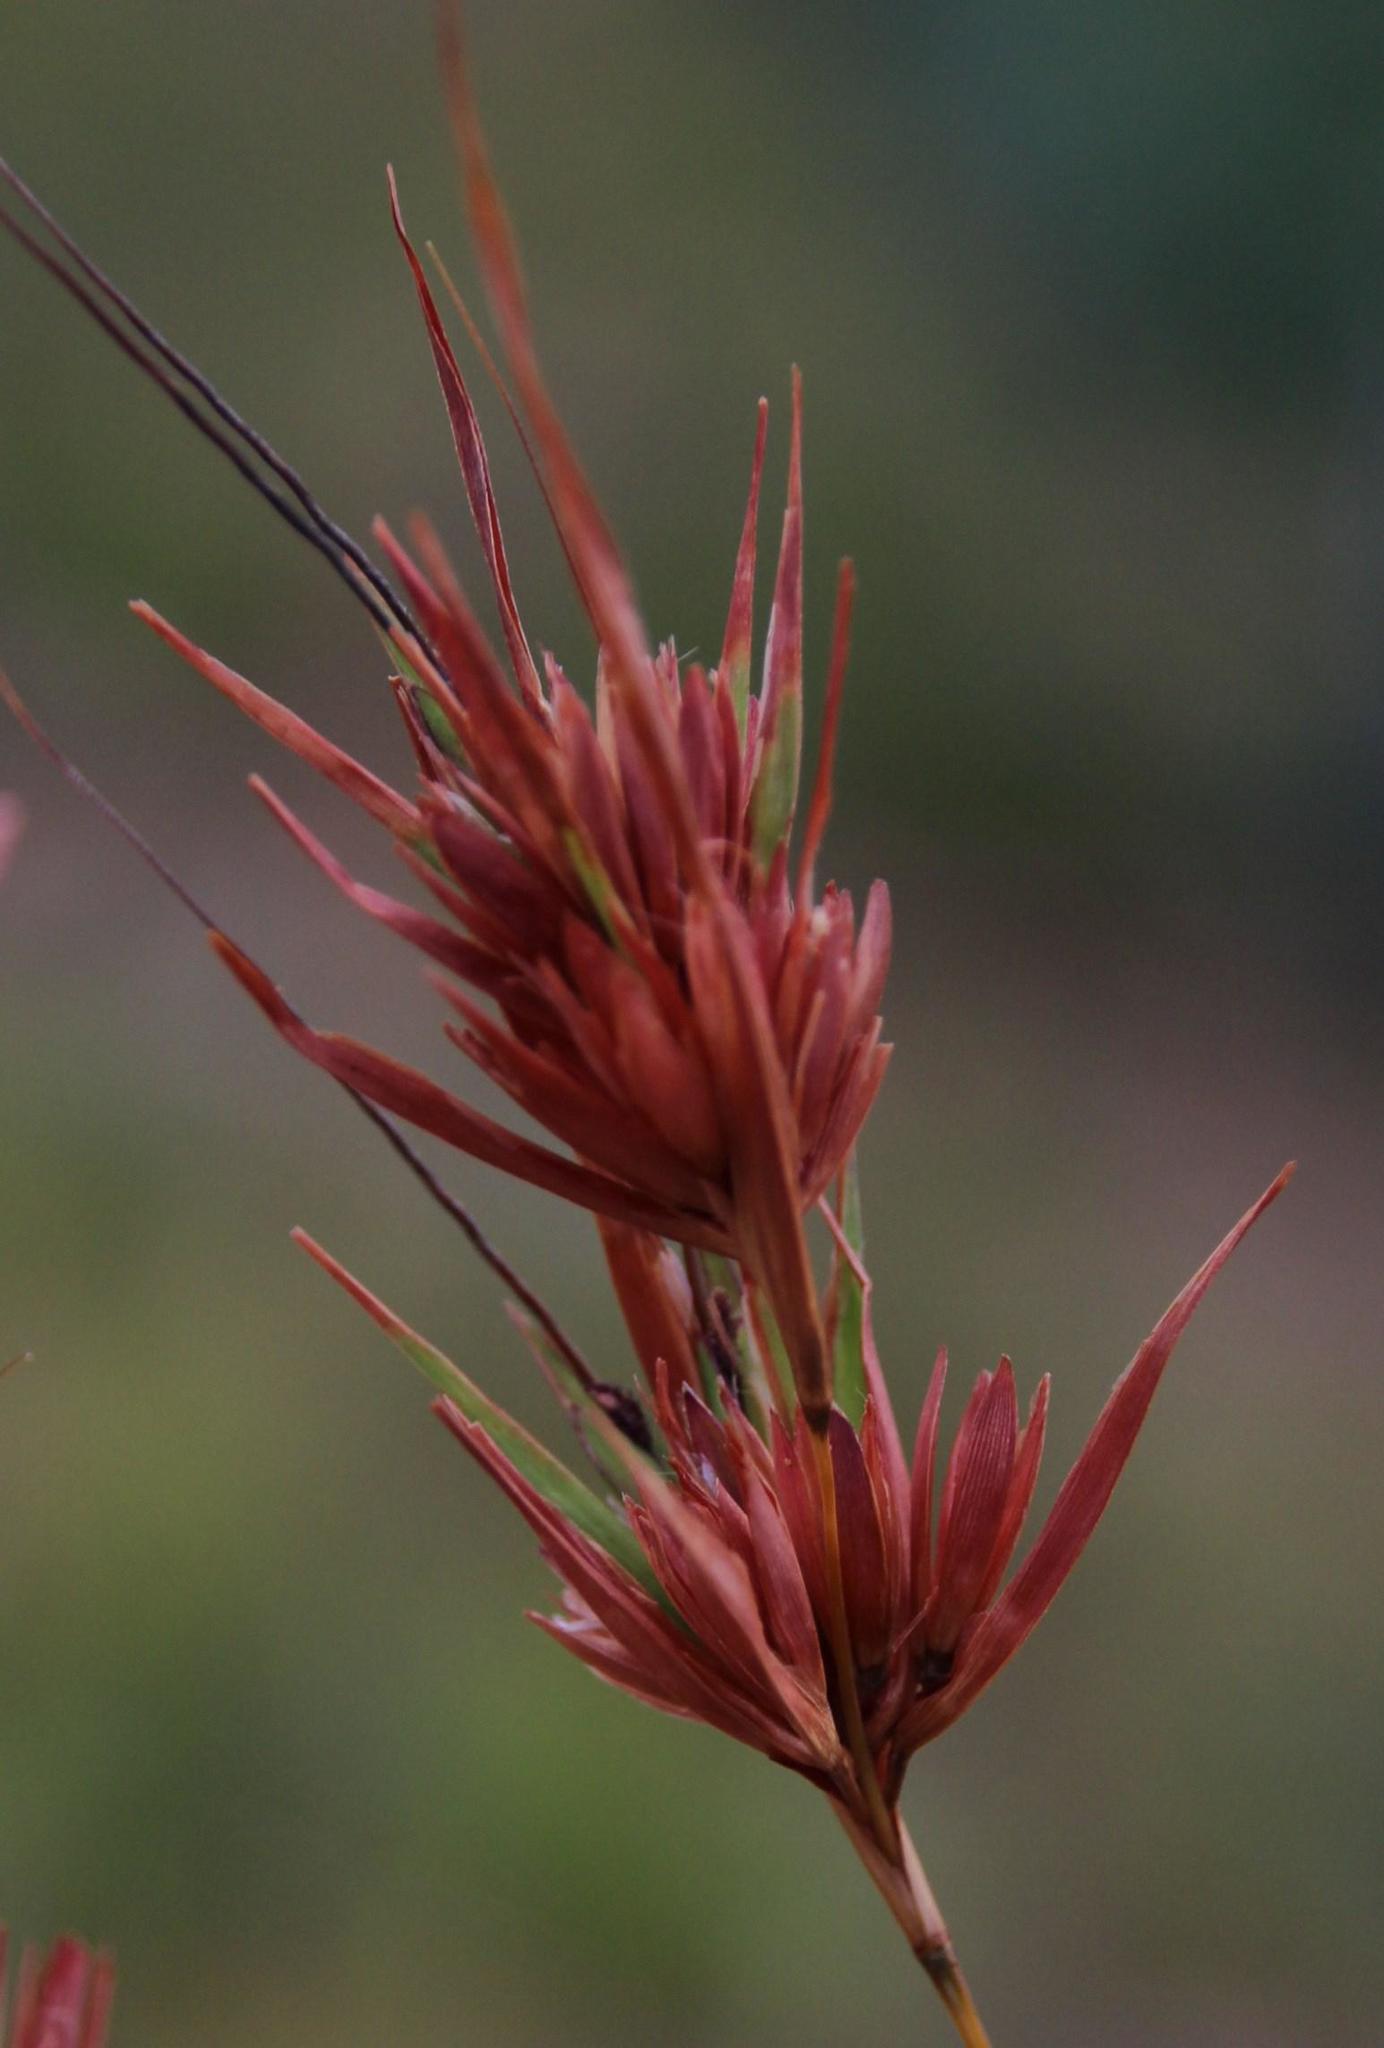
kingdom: Plantae
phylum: Tracheophyta
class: Liliopsida
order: Poales
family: Poaceae
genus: Themeda
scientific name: Themeda triandra
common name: Kangaroo grass
